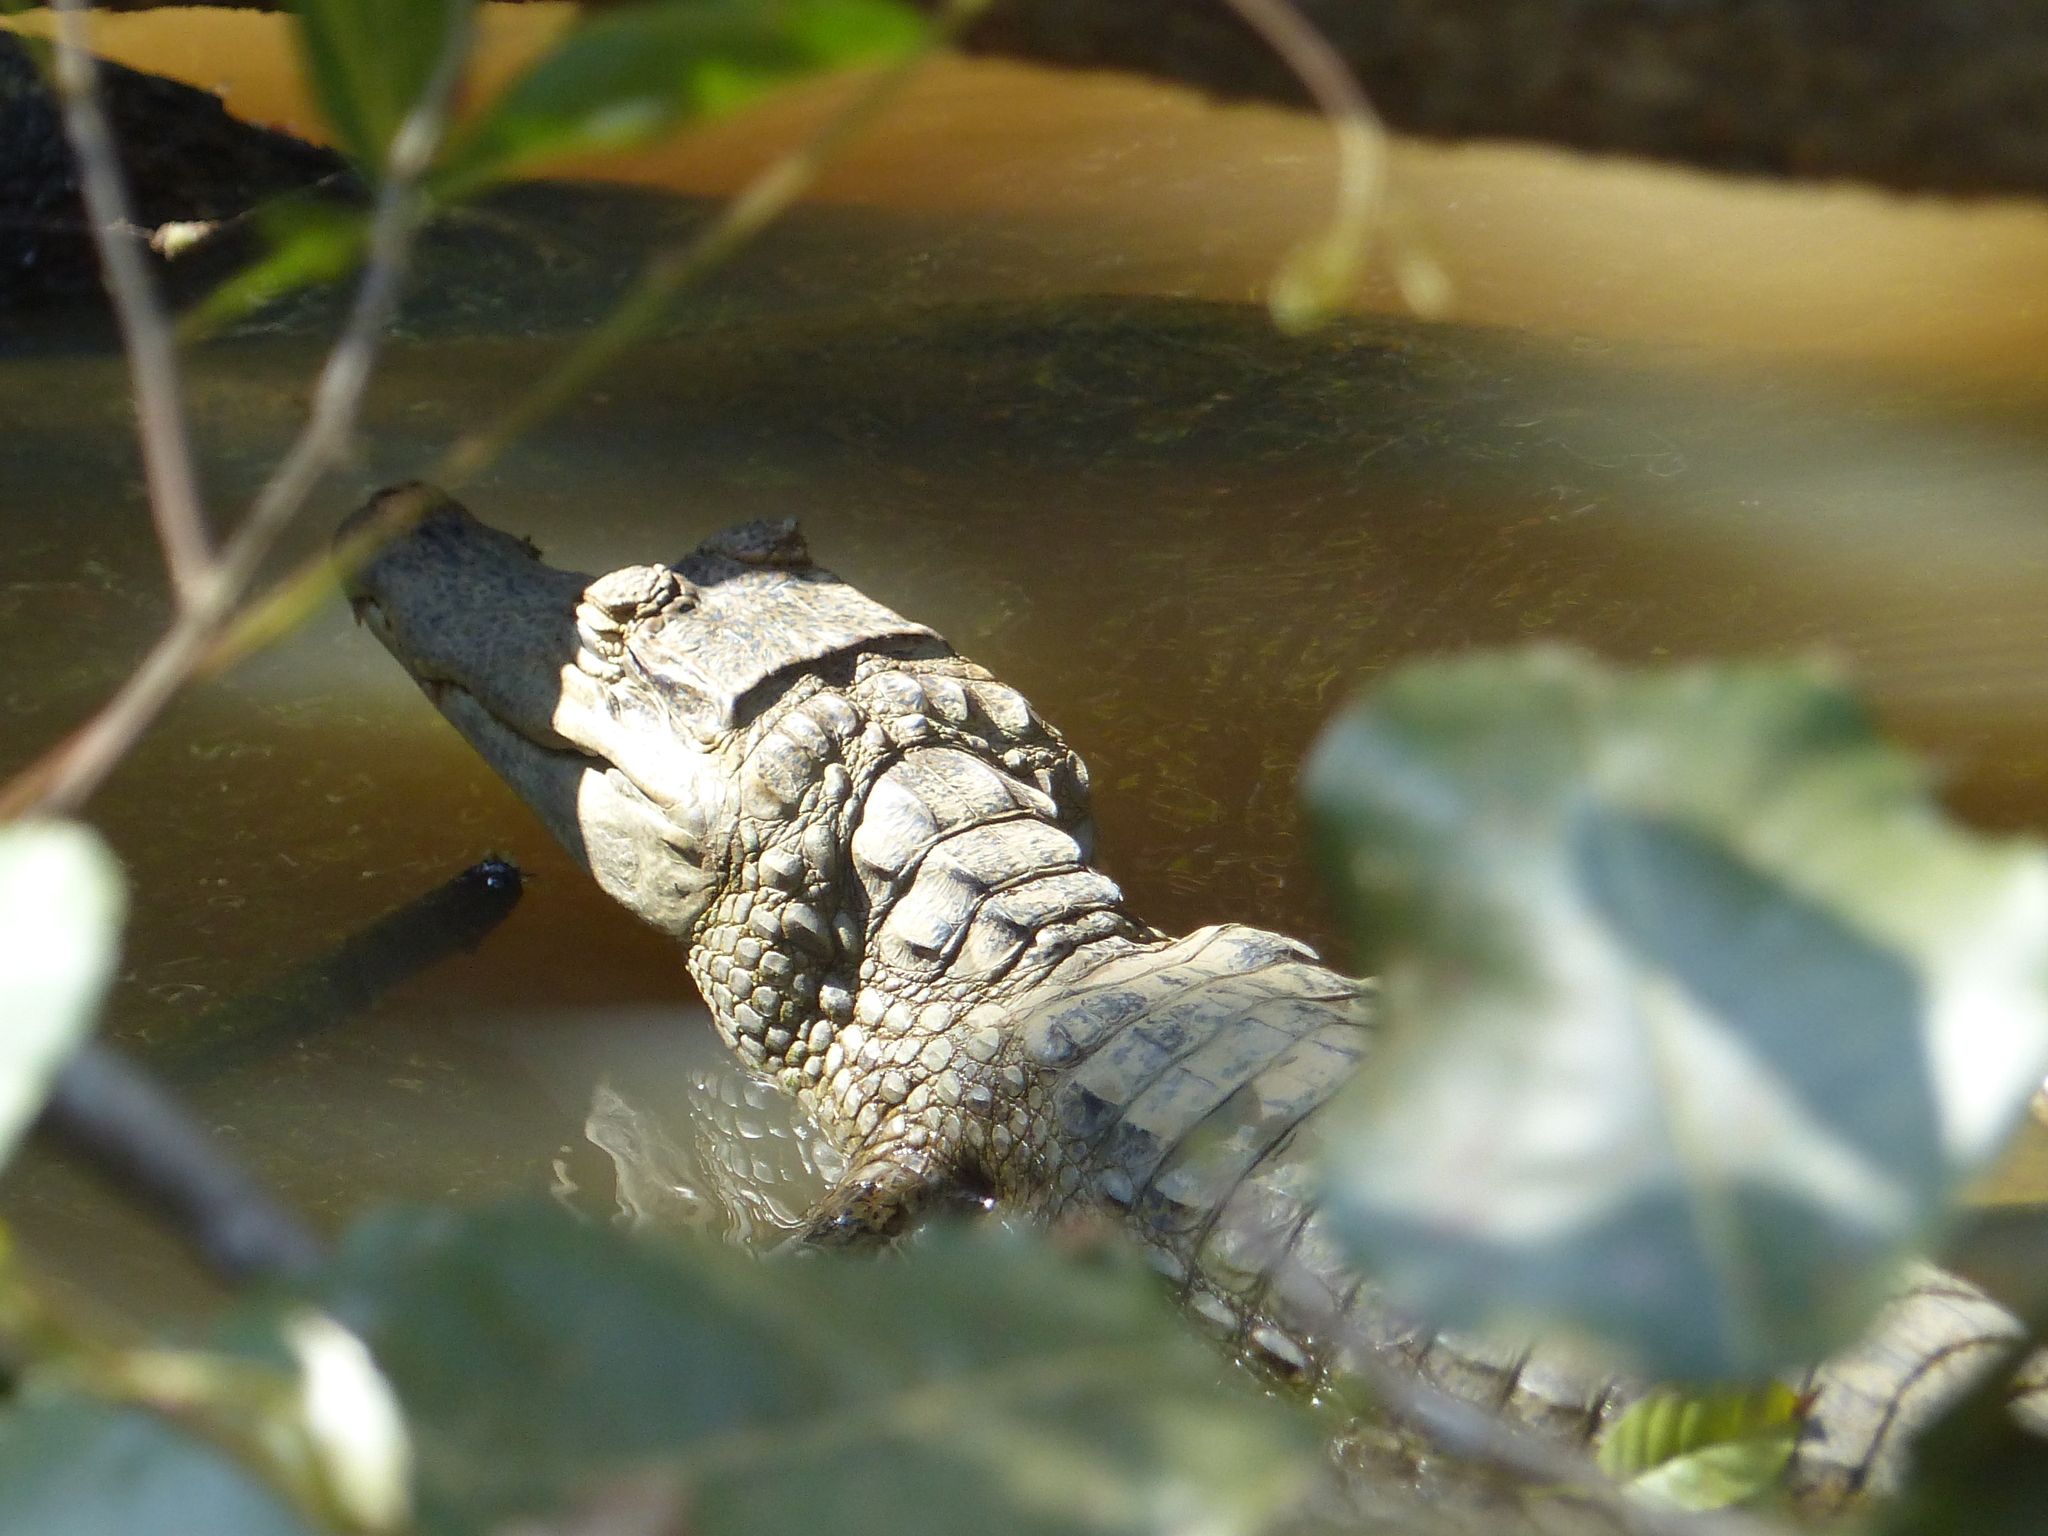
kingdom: Animalia
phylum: Chordata
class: Crocodylia
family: Alligatoridae
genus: Caiman
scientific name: Caiman crocodilus
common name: Common caiman
